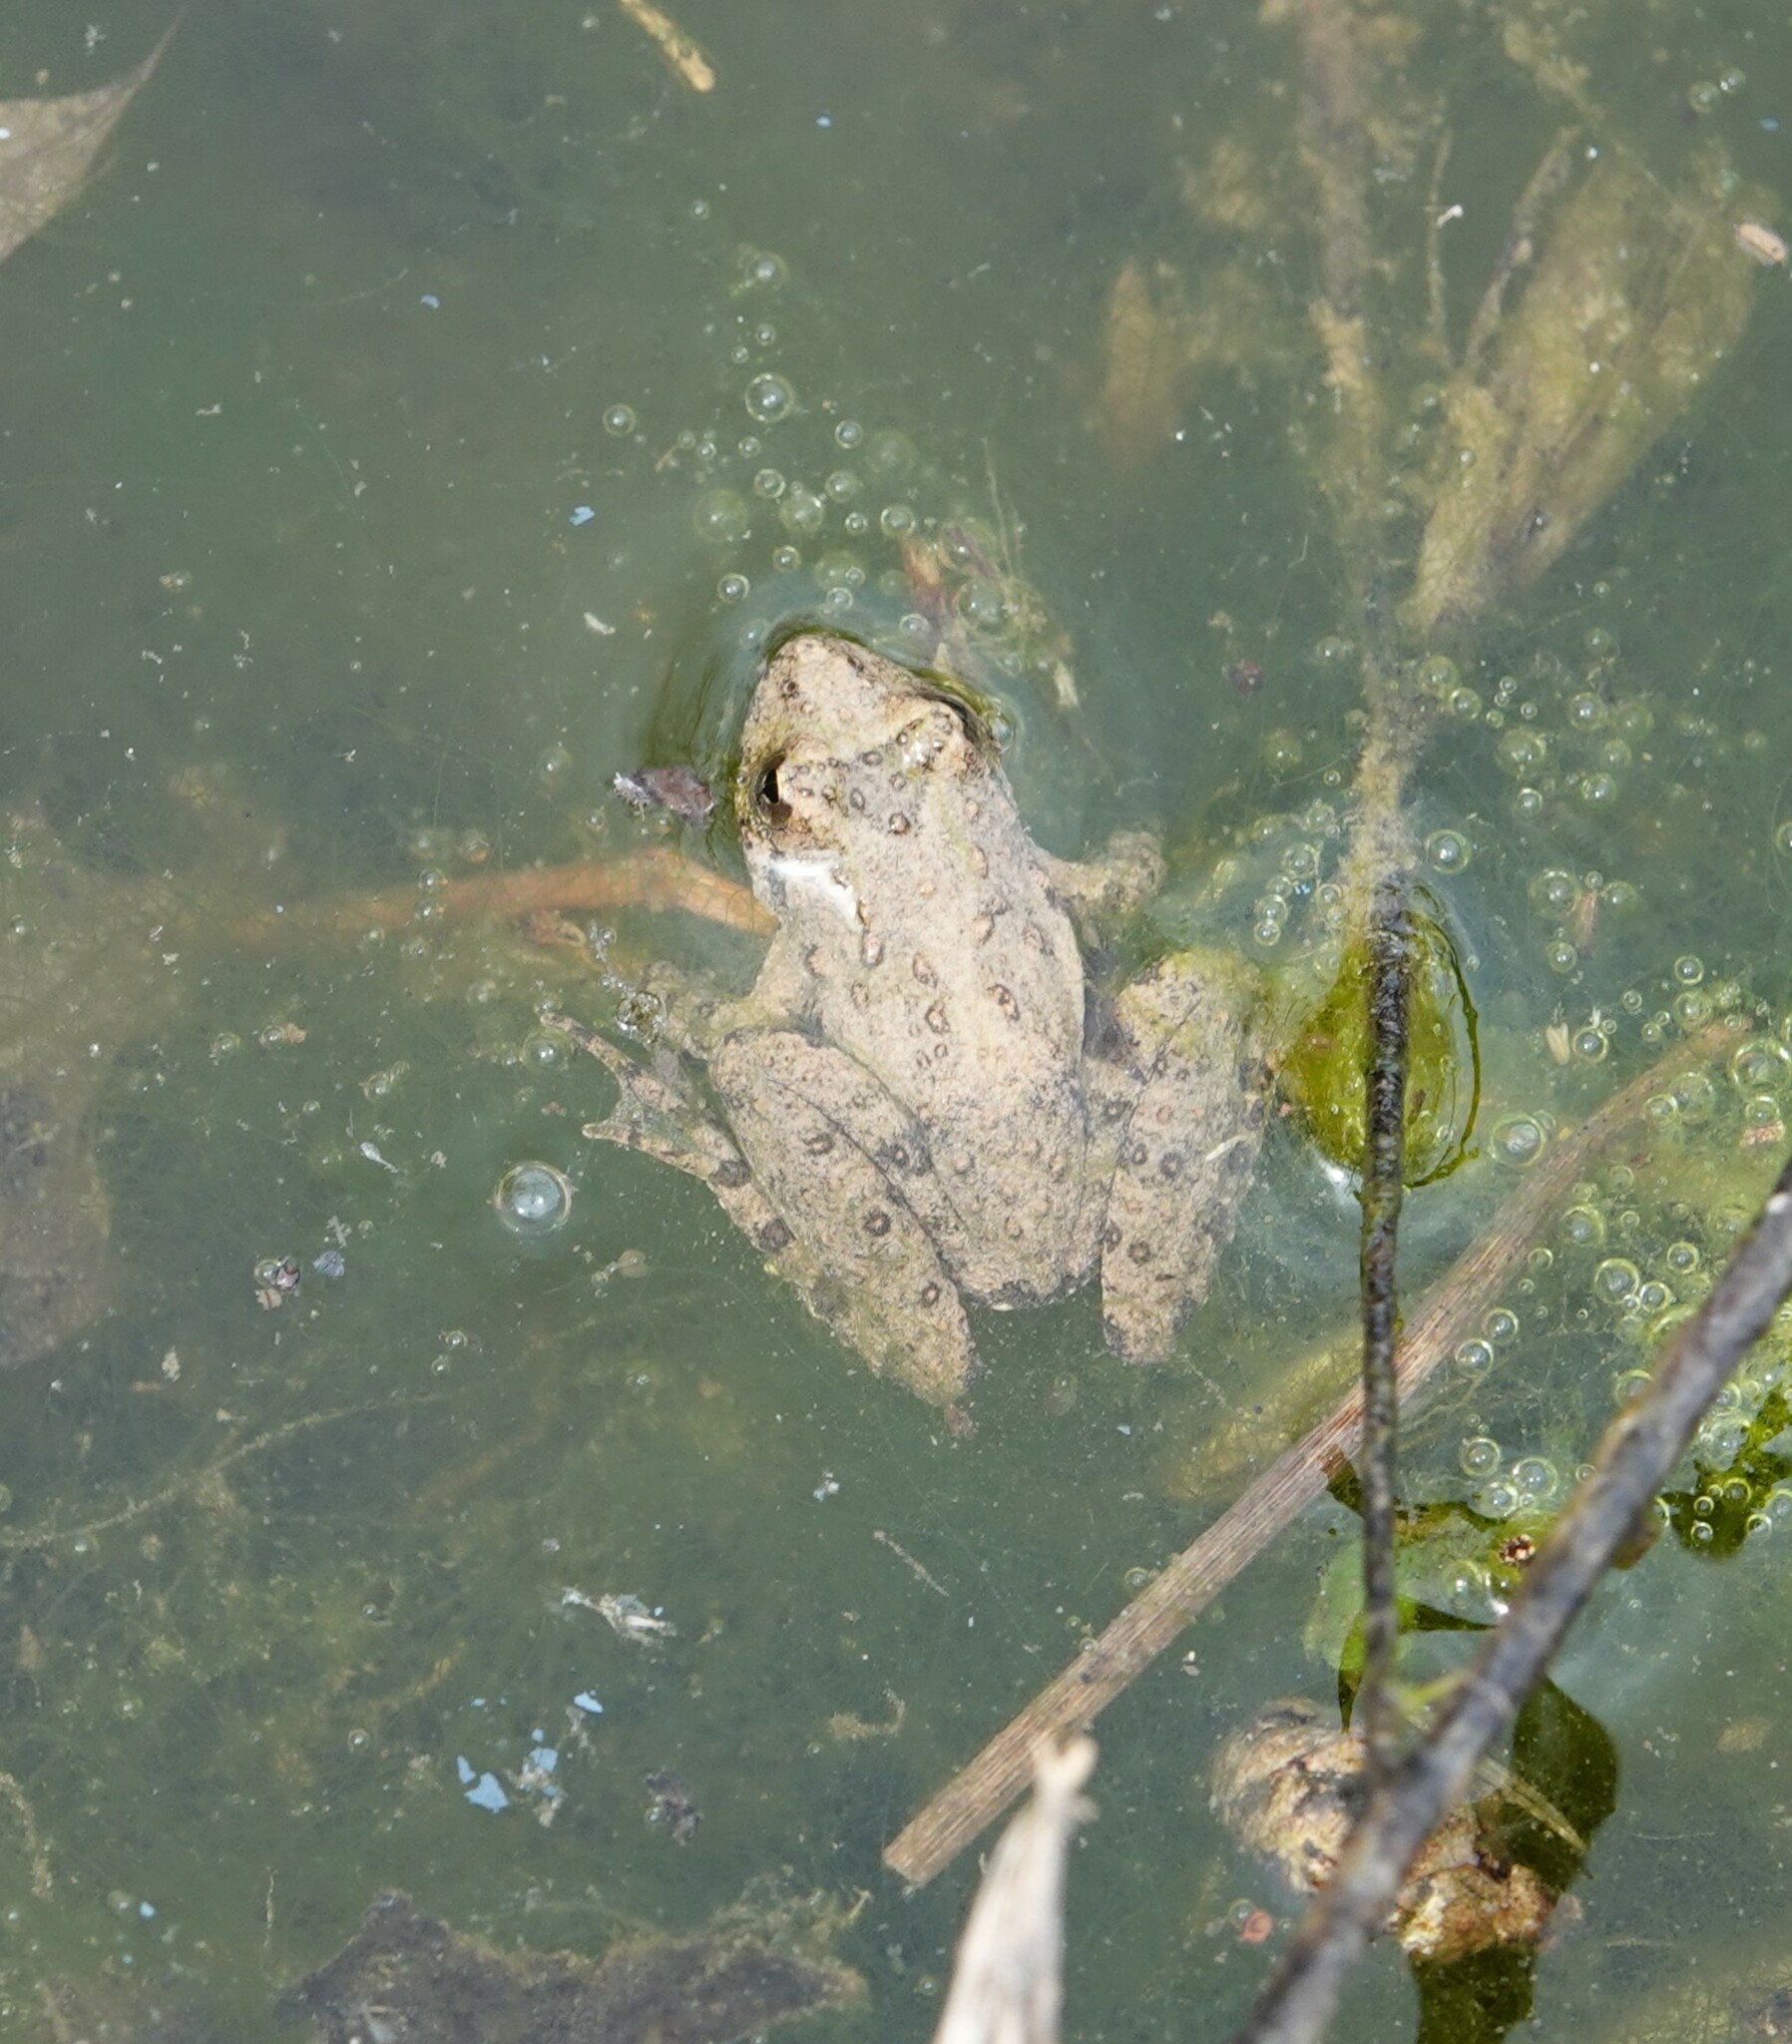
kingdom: Animalia
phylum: Chordata
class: Amphibia
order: Anura
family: Hylidae
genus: Acris
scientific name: Acris blanchardi
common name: Blanchard's cricket frog
